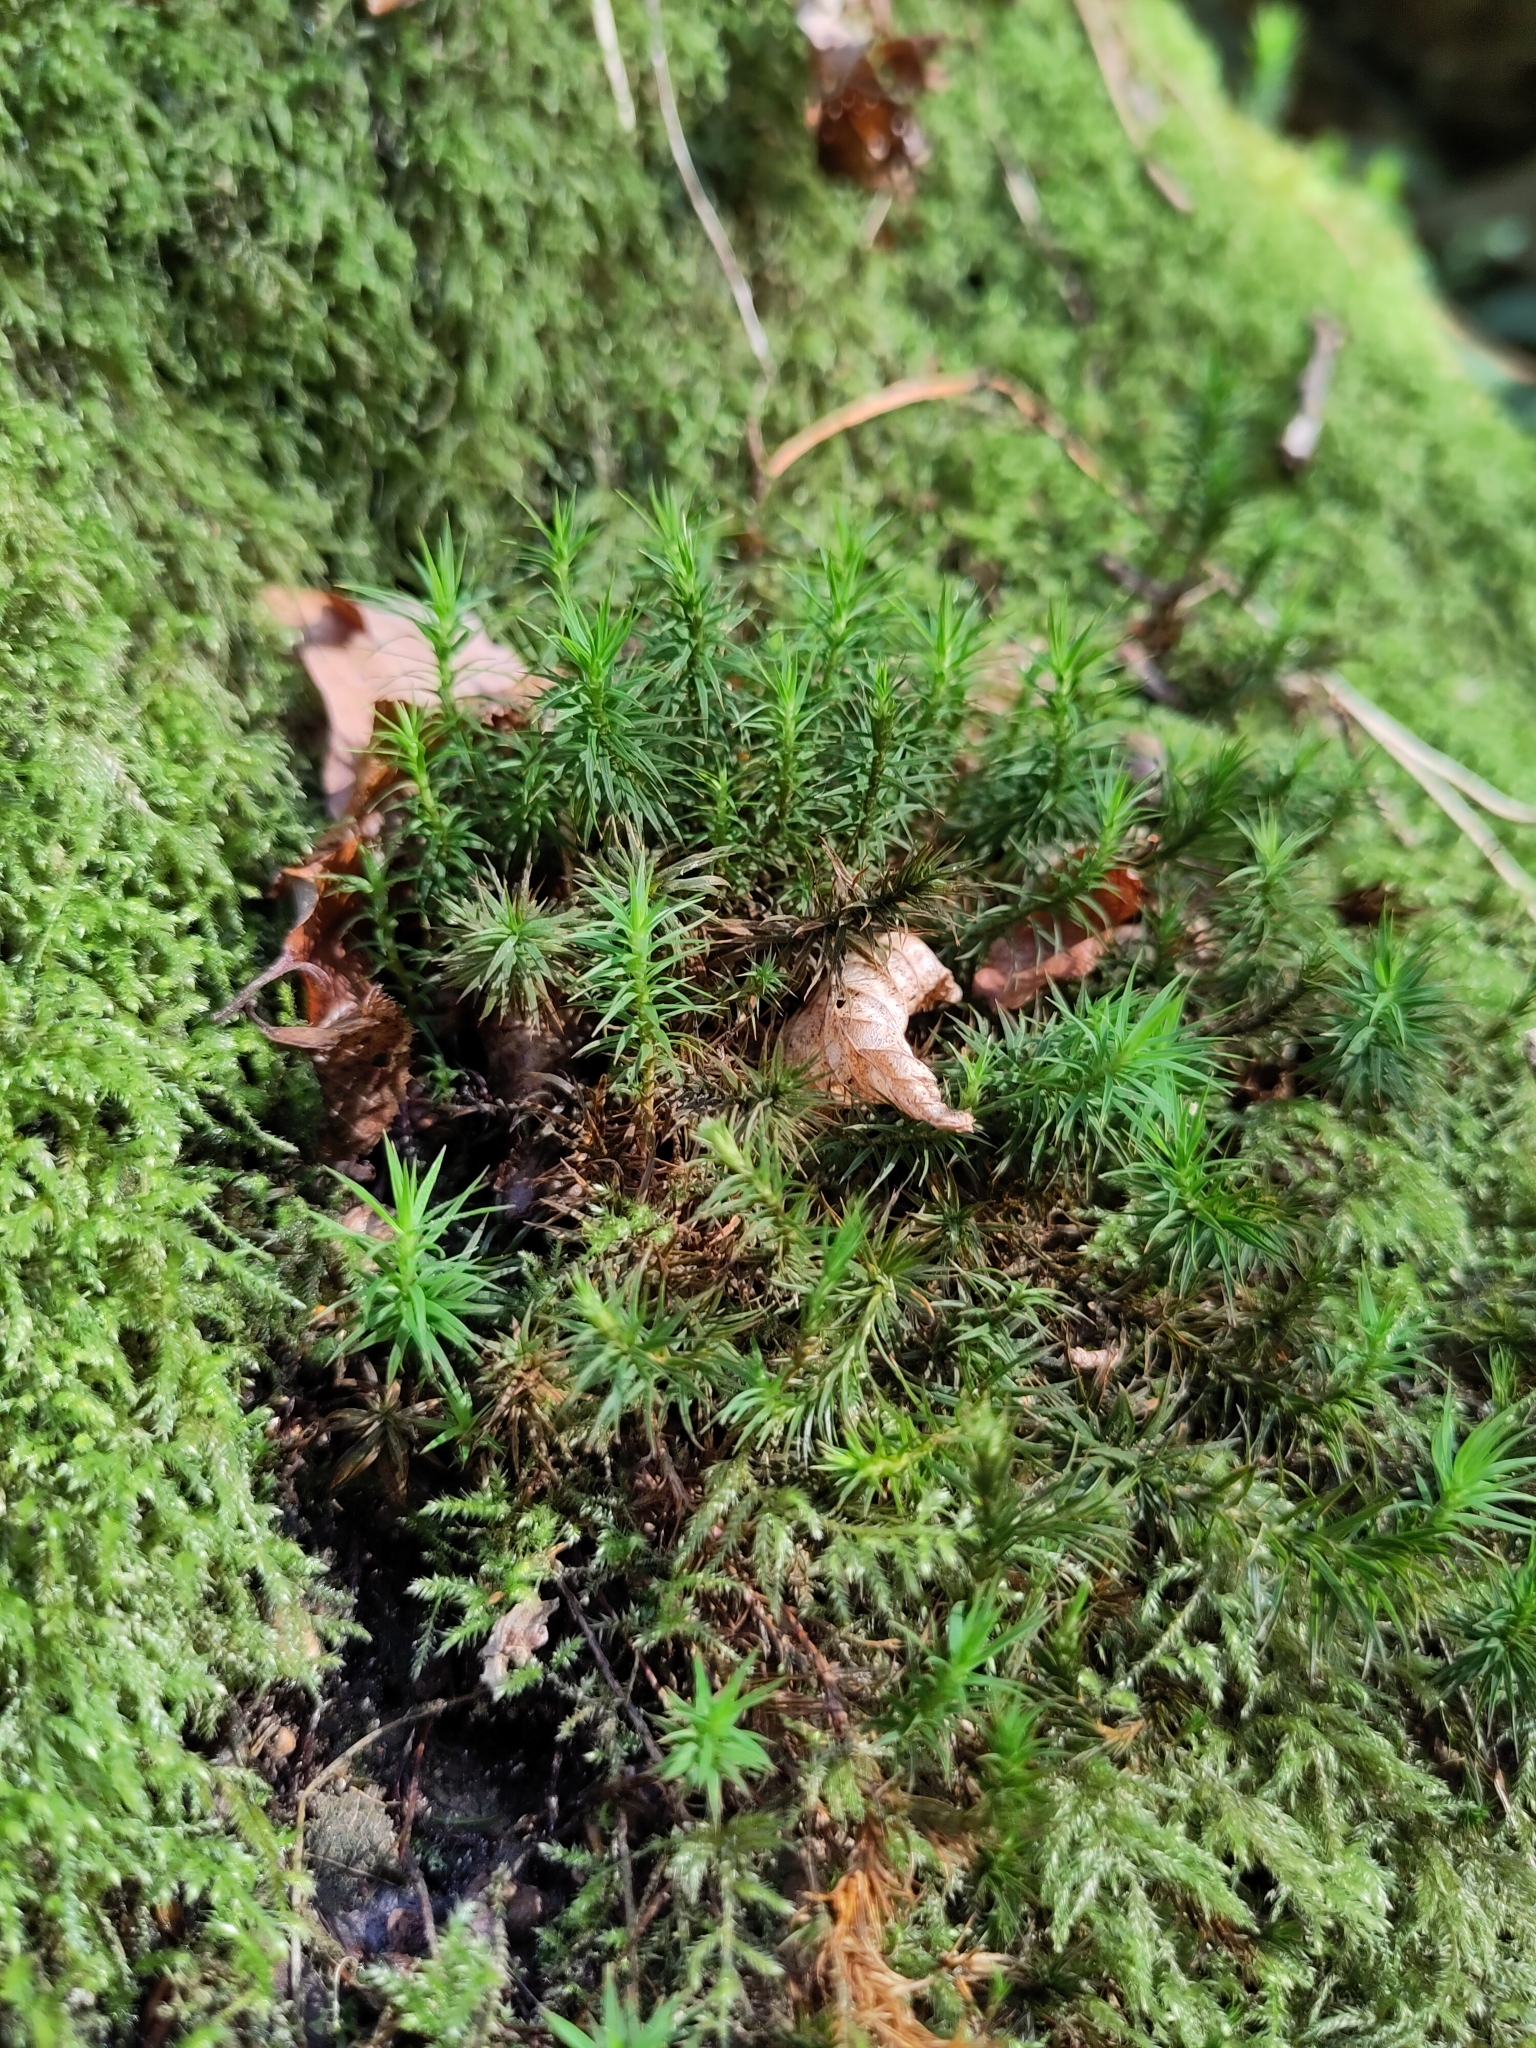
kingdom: Plantae
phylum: Bryophyta
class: Polytrichopsida
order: Polytrichales
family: Polytrichaceae
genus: Polytrichum
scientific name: Polytrichum formosum
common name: Bank haircap moss
